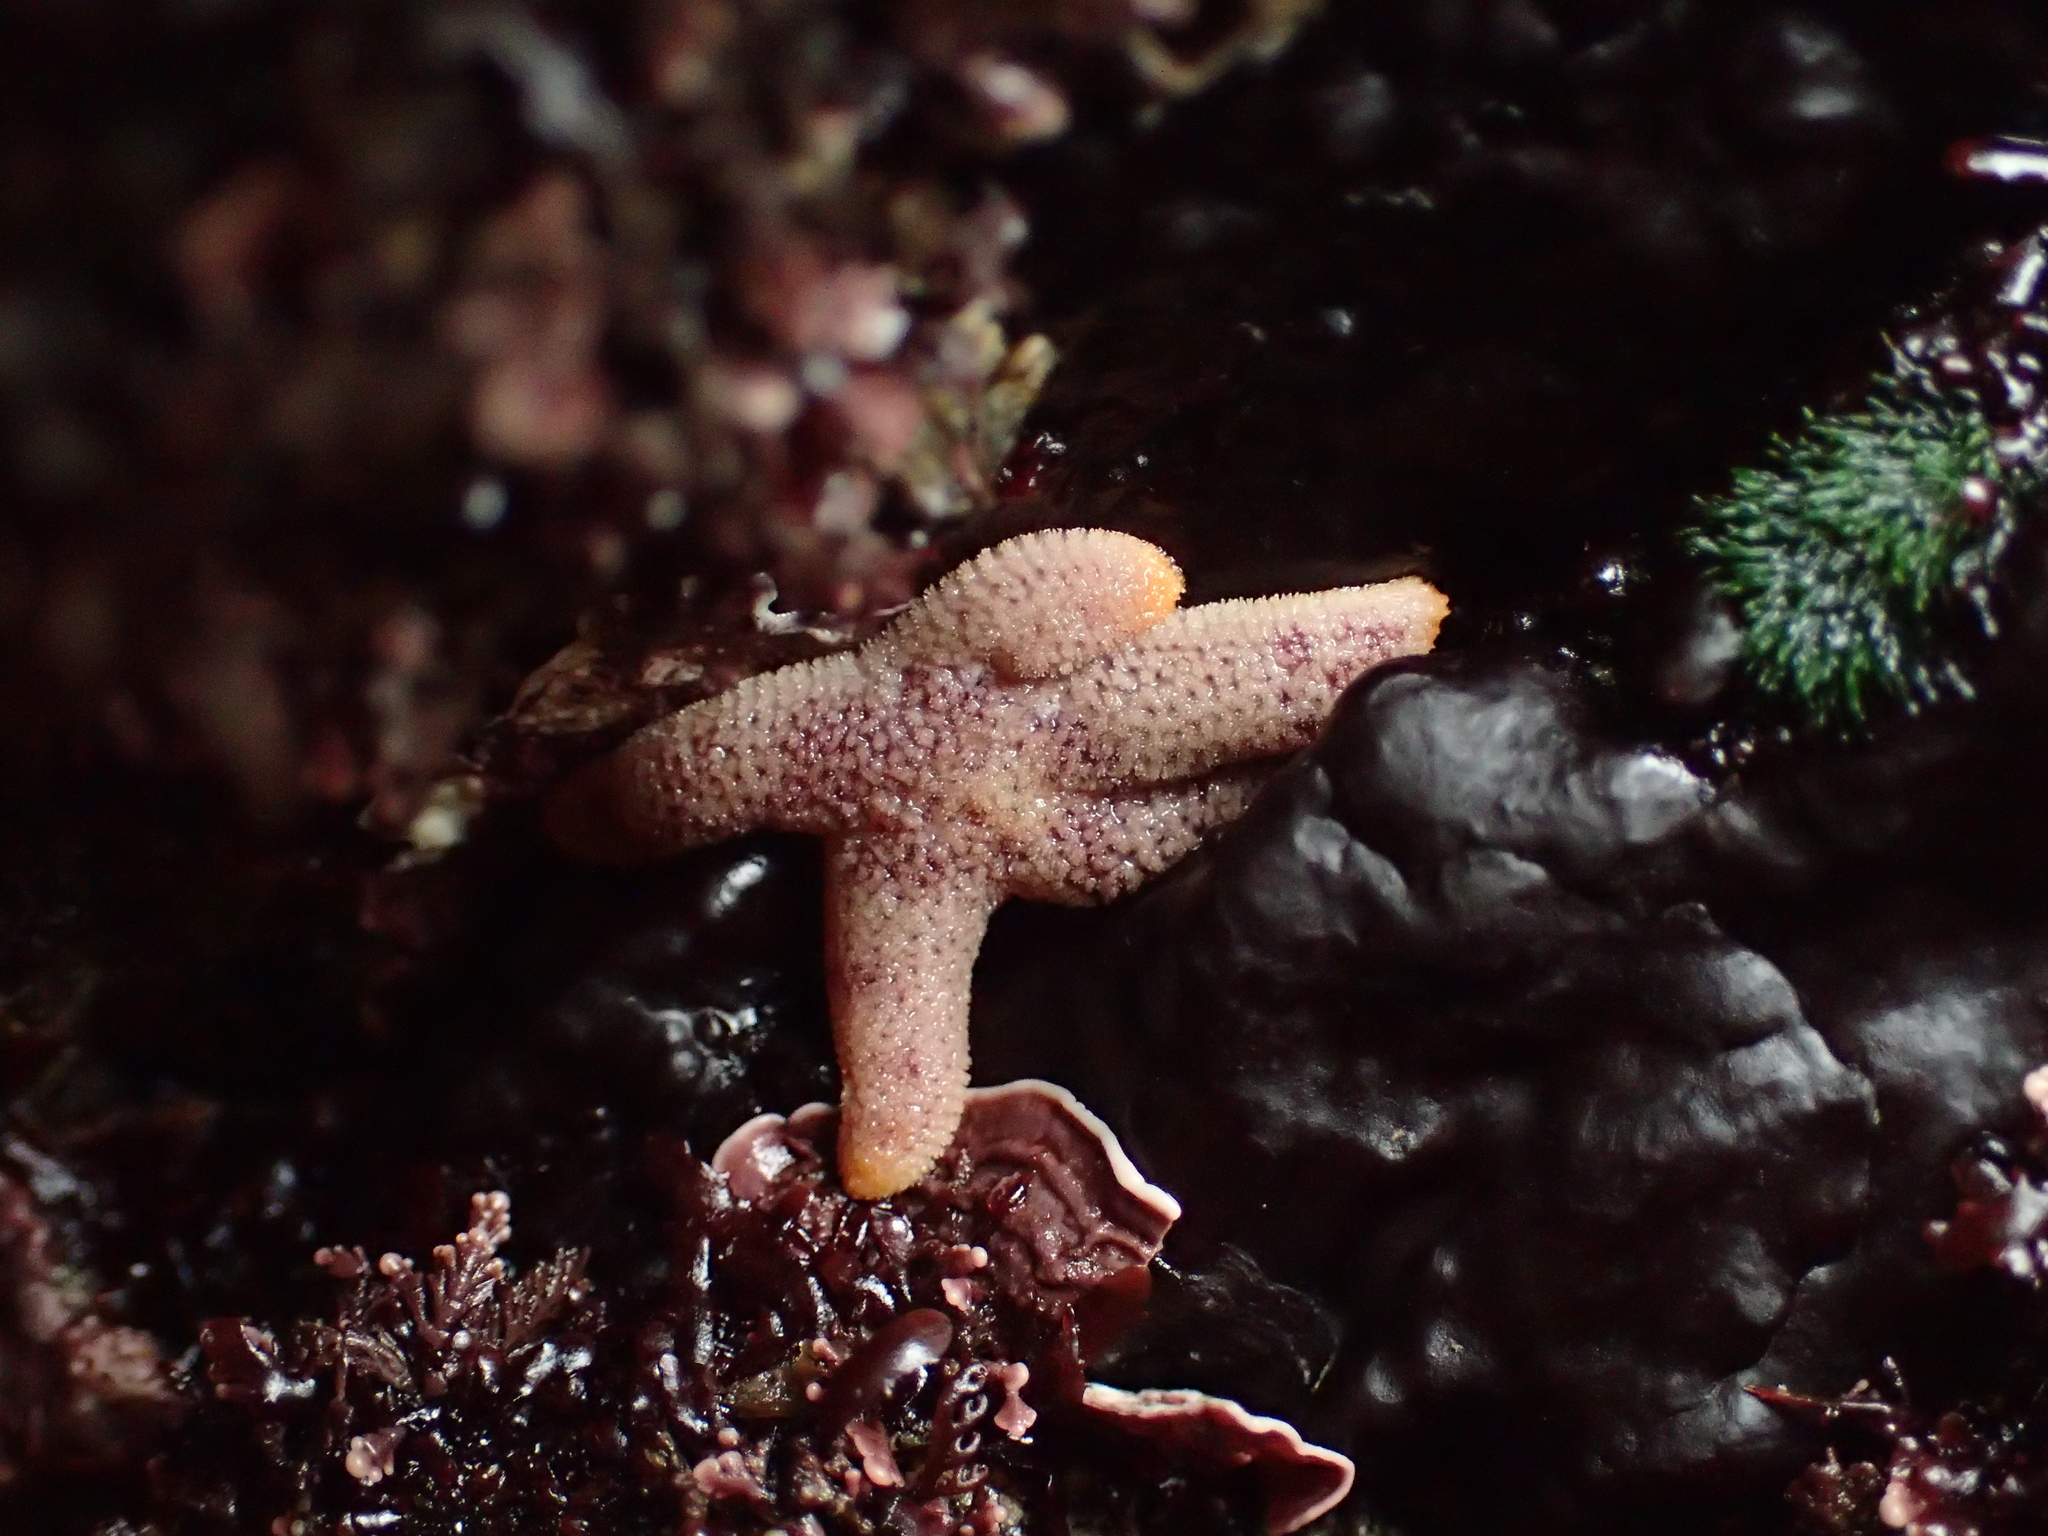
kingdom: Animalia
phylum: Echinodermata
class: Asteroidea
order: Spinulosida
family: Echinasteridae
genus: Henricia
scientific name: Henricia pumila
